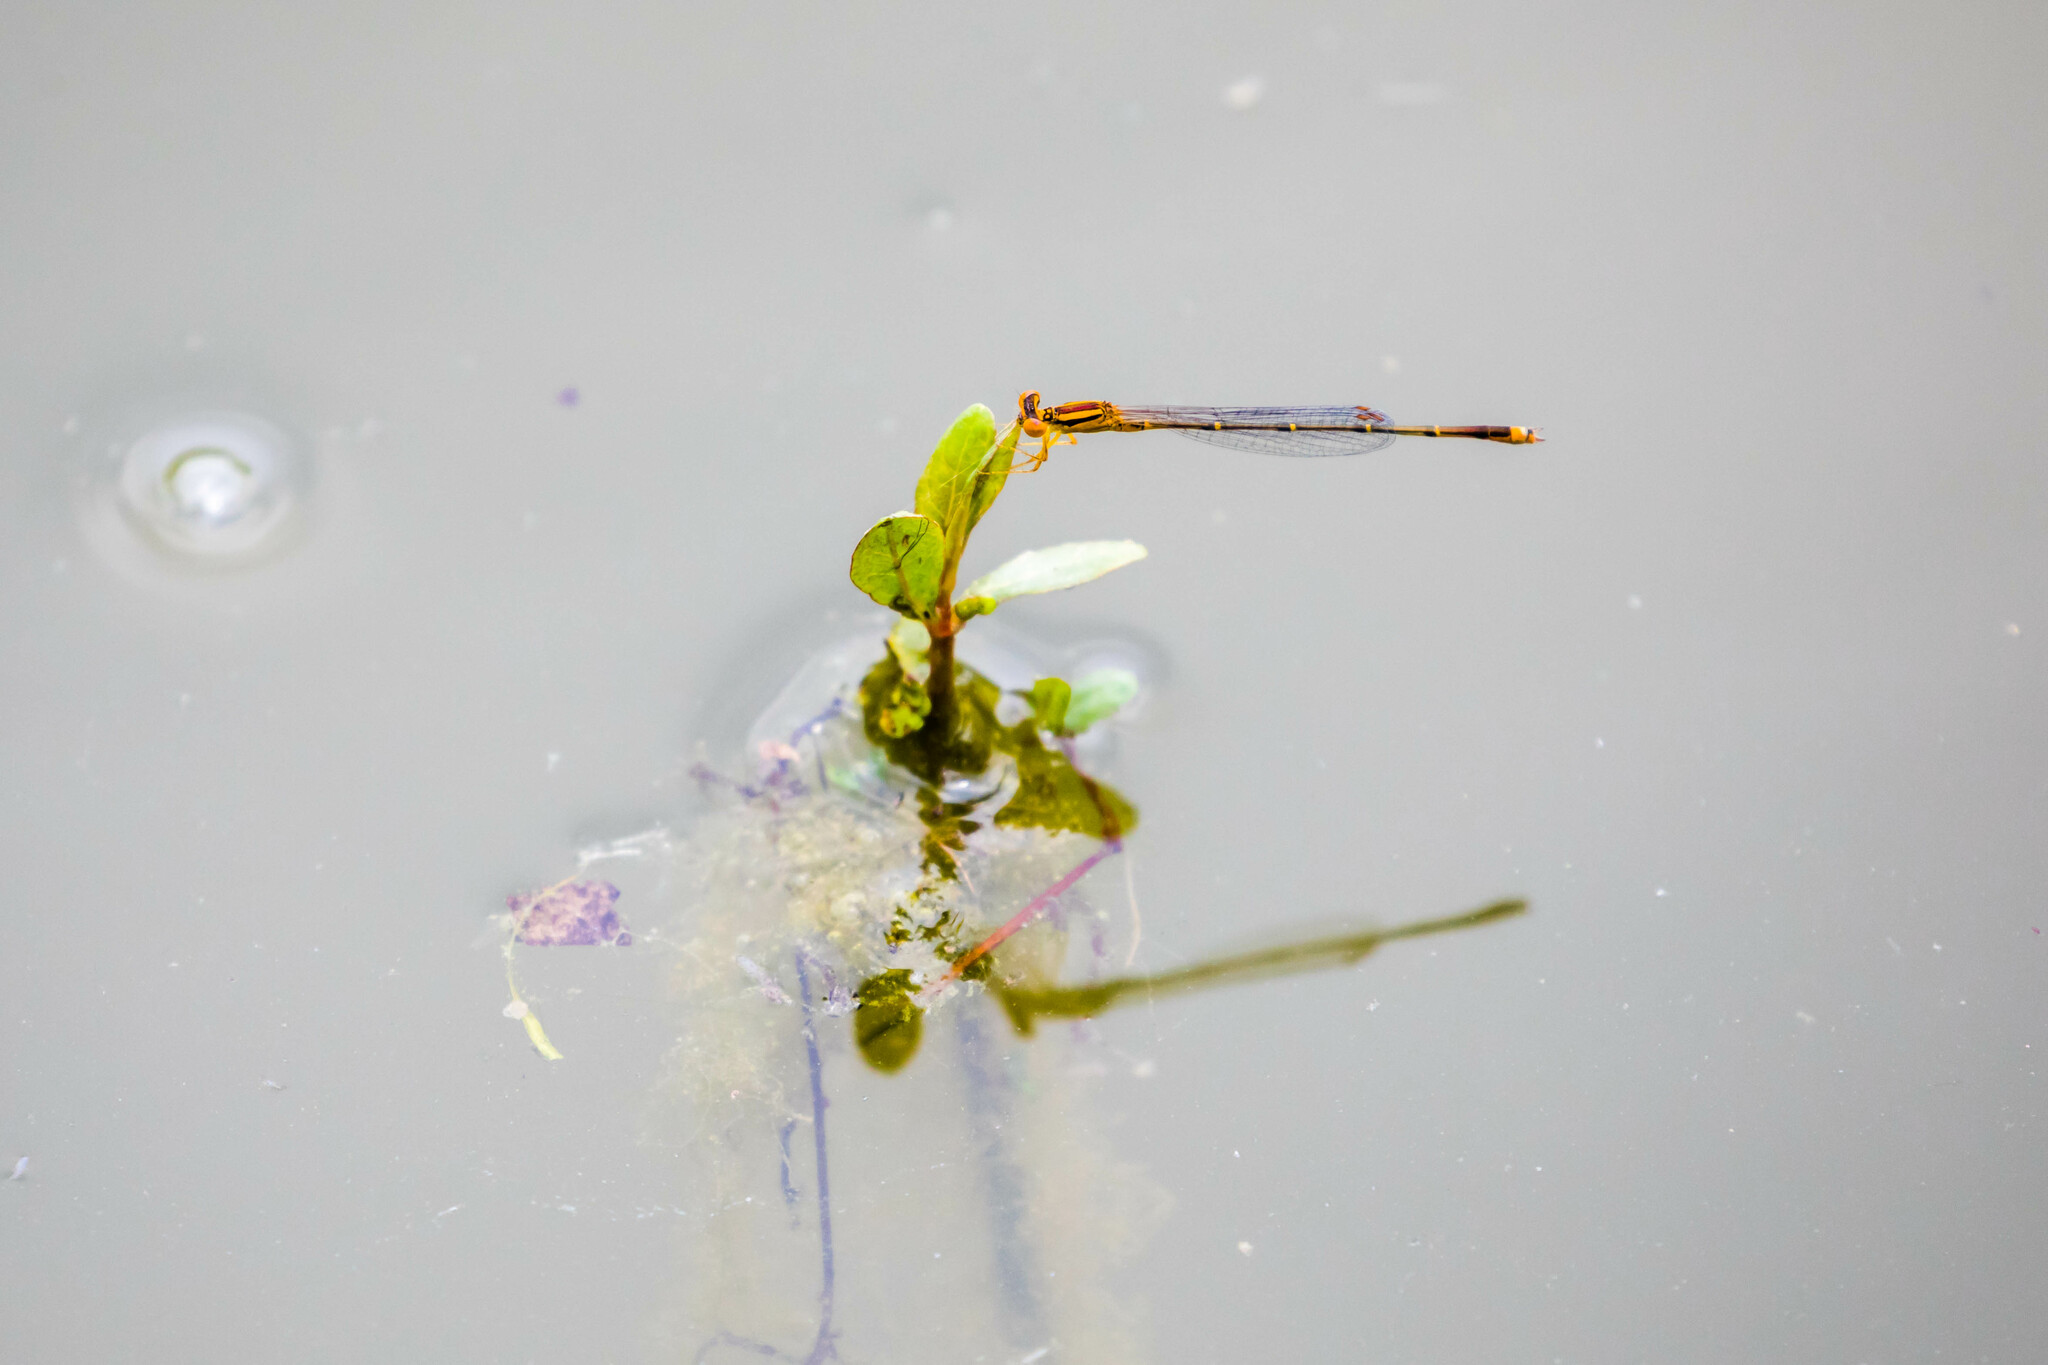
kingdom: Animalia
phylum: Arthropoda
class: Insecta
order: Odonata
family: Coenagrionidae
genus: Enallagma
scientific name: Enallagma signatum
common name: Orange bluet
